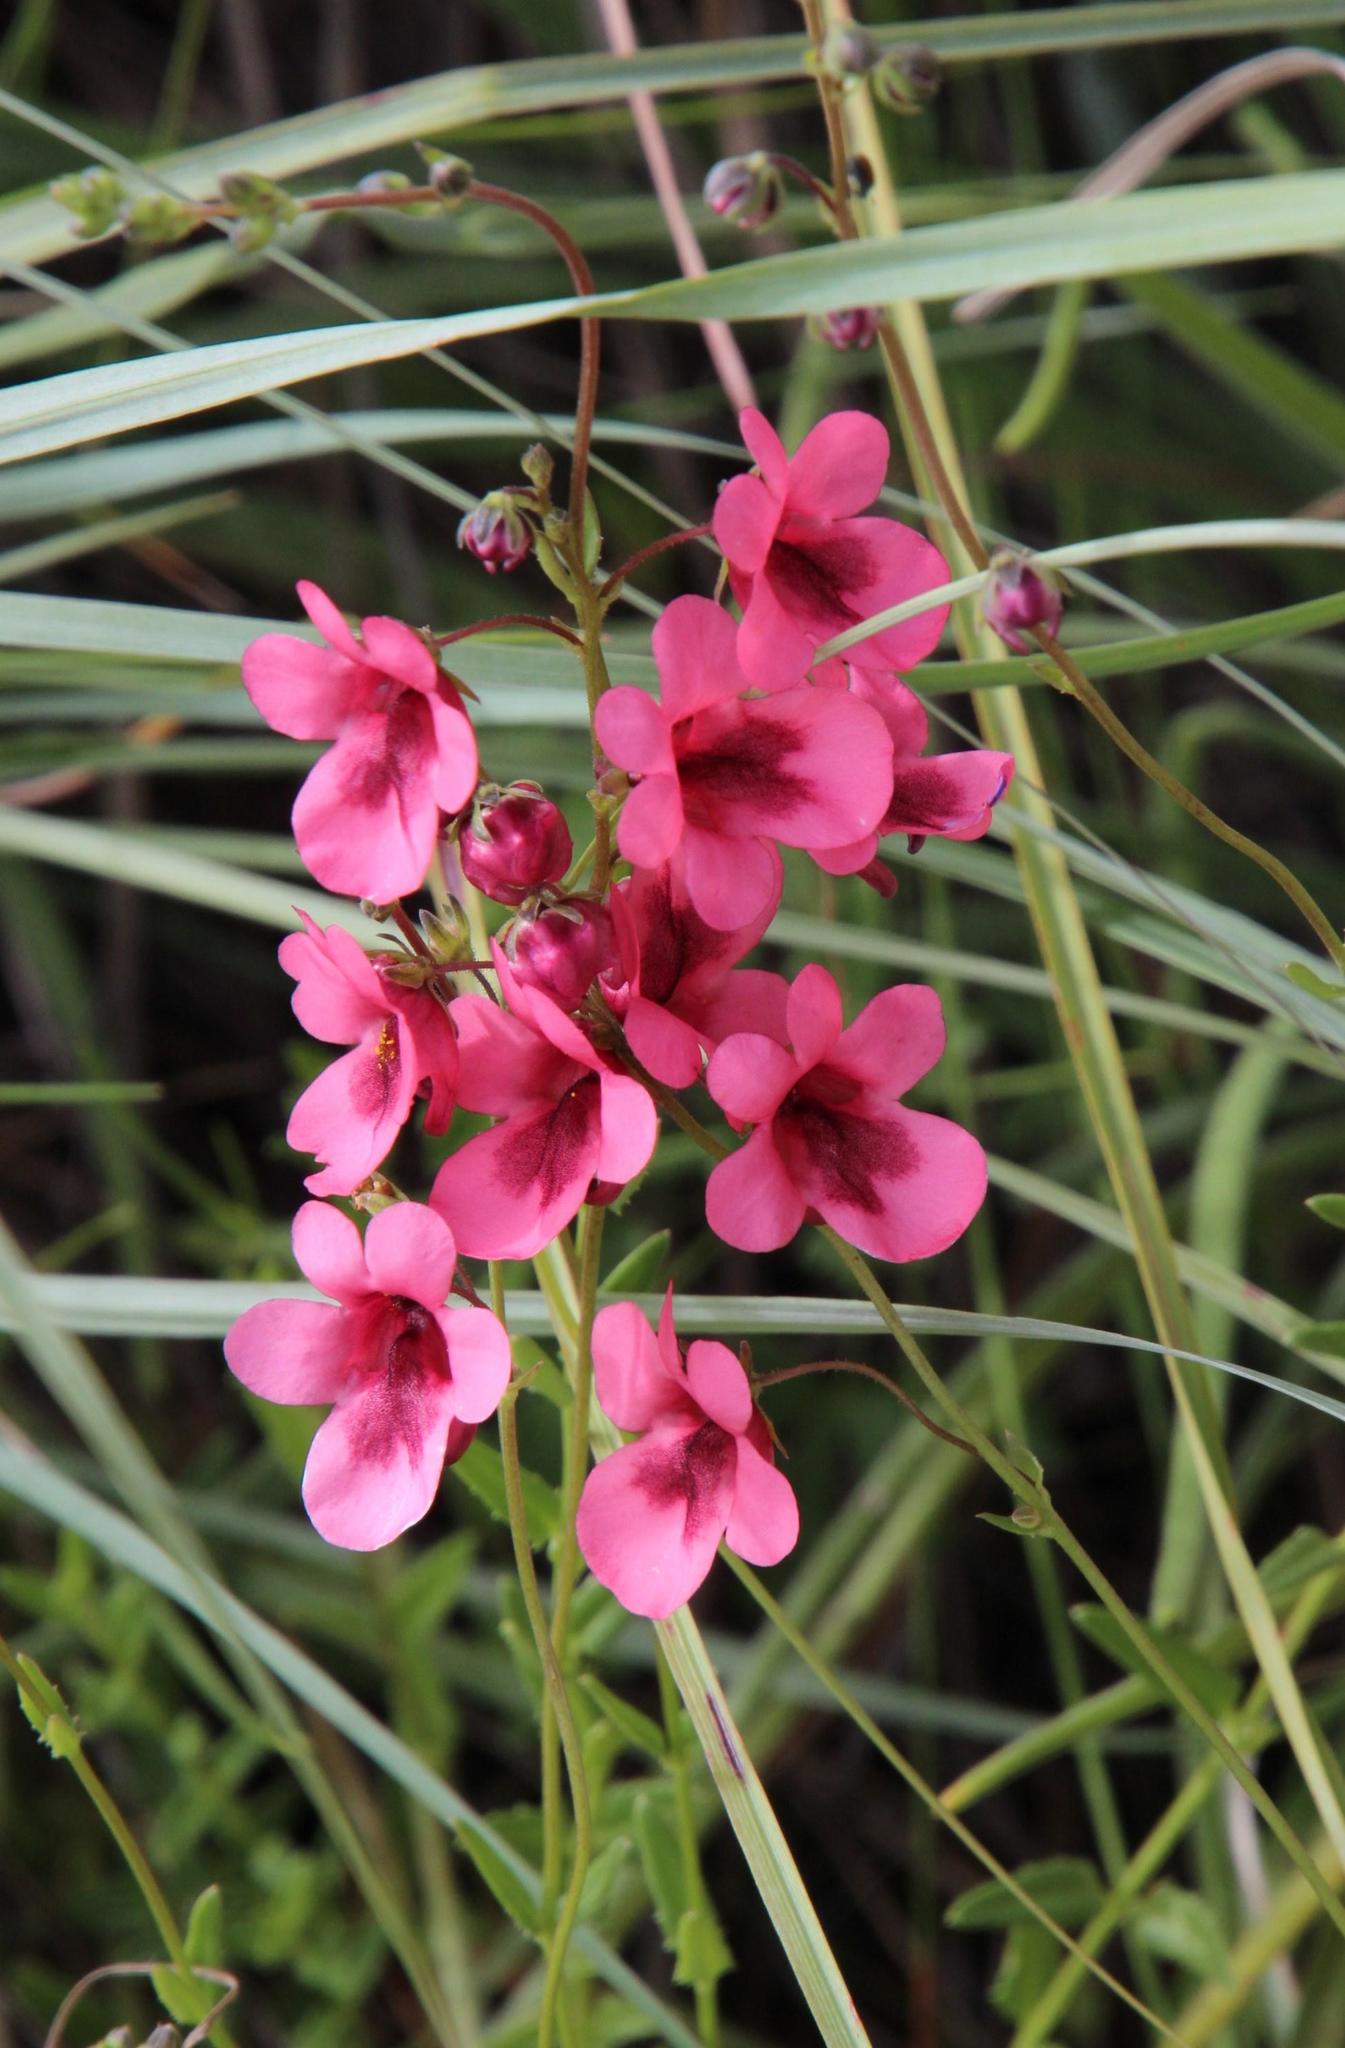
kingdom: Plantae
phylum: Tracheophyta
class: Magnoliopsida
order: Lamiales
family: Scrophulariaceae
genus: Diascia
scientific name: Diascia capsularis
